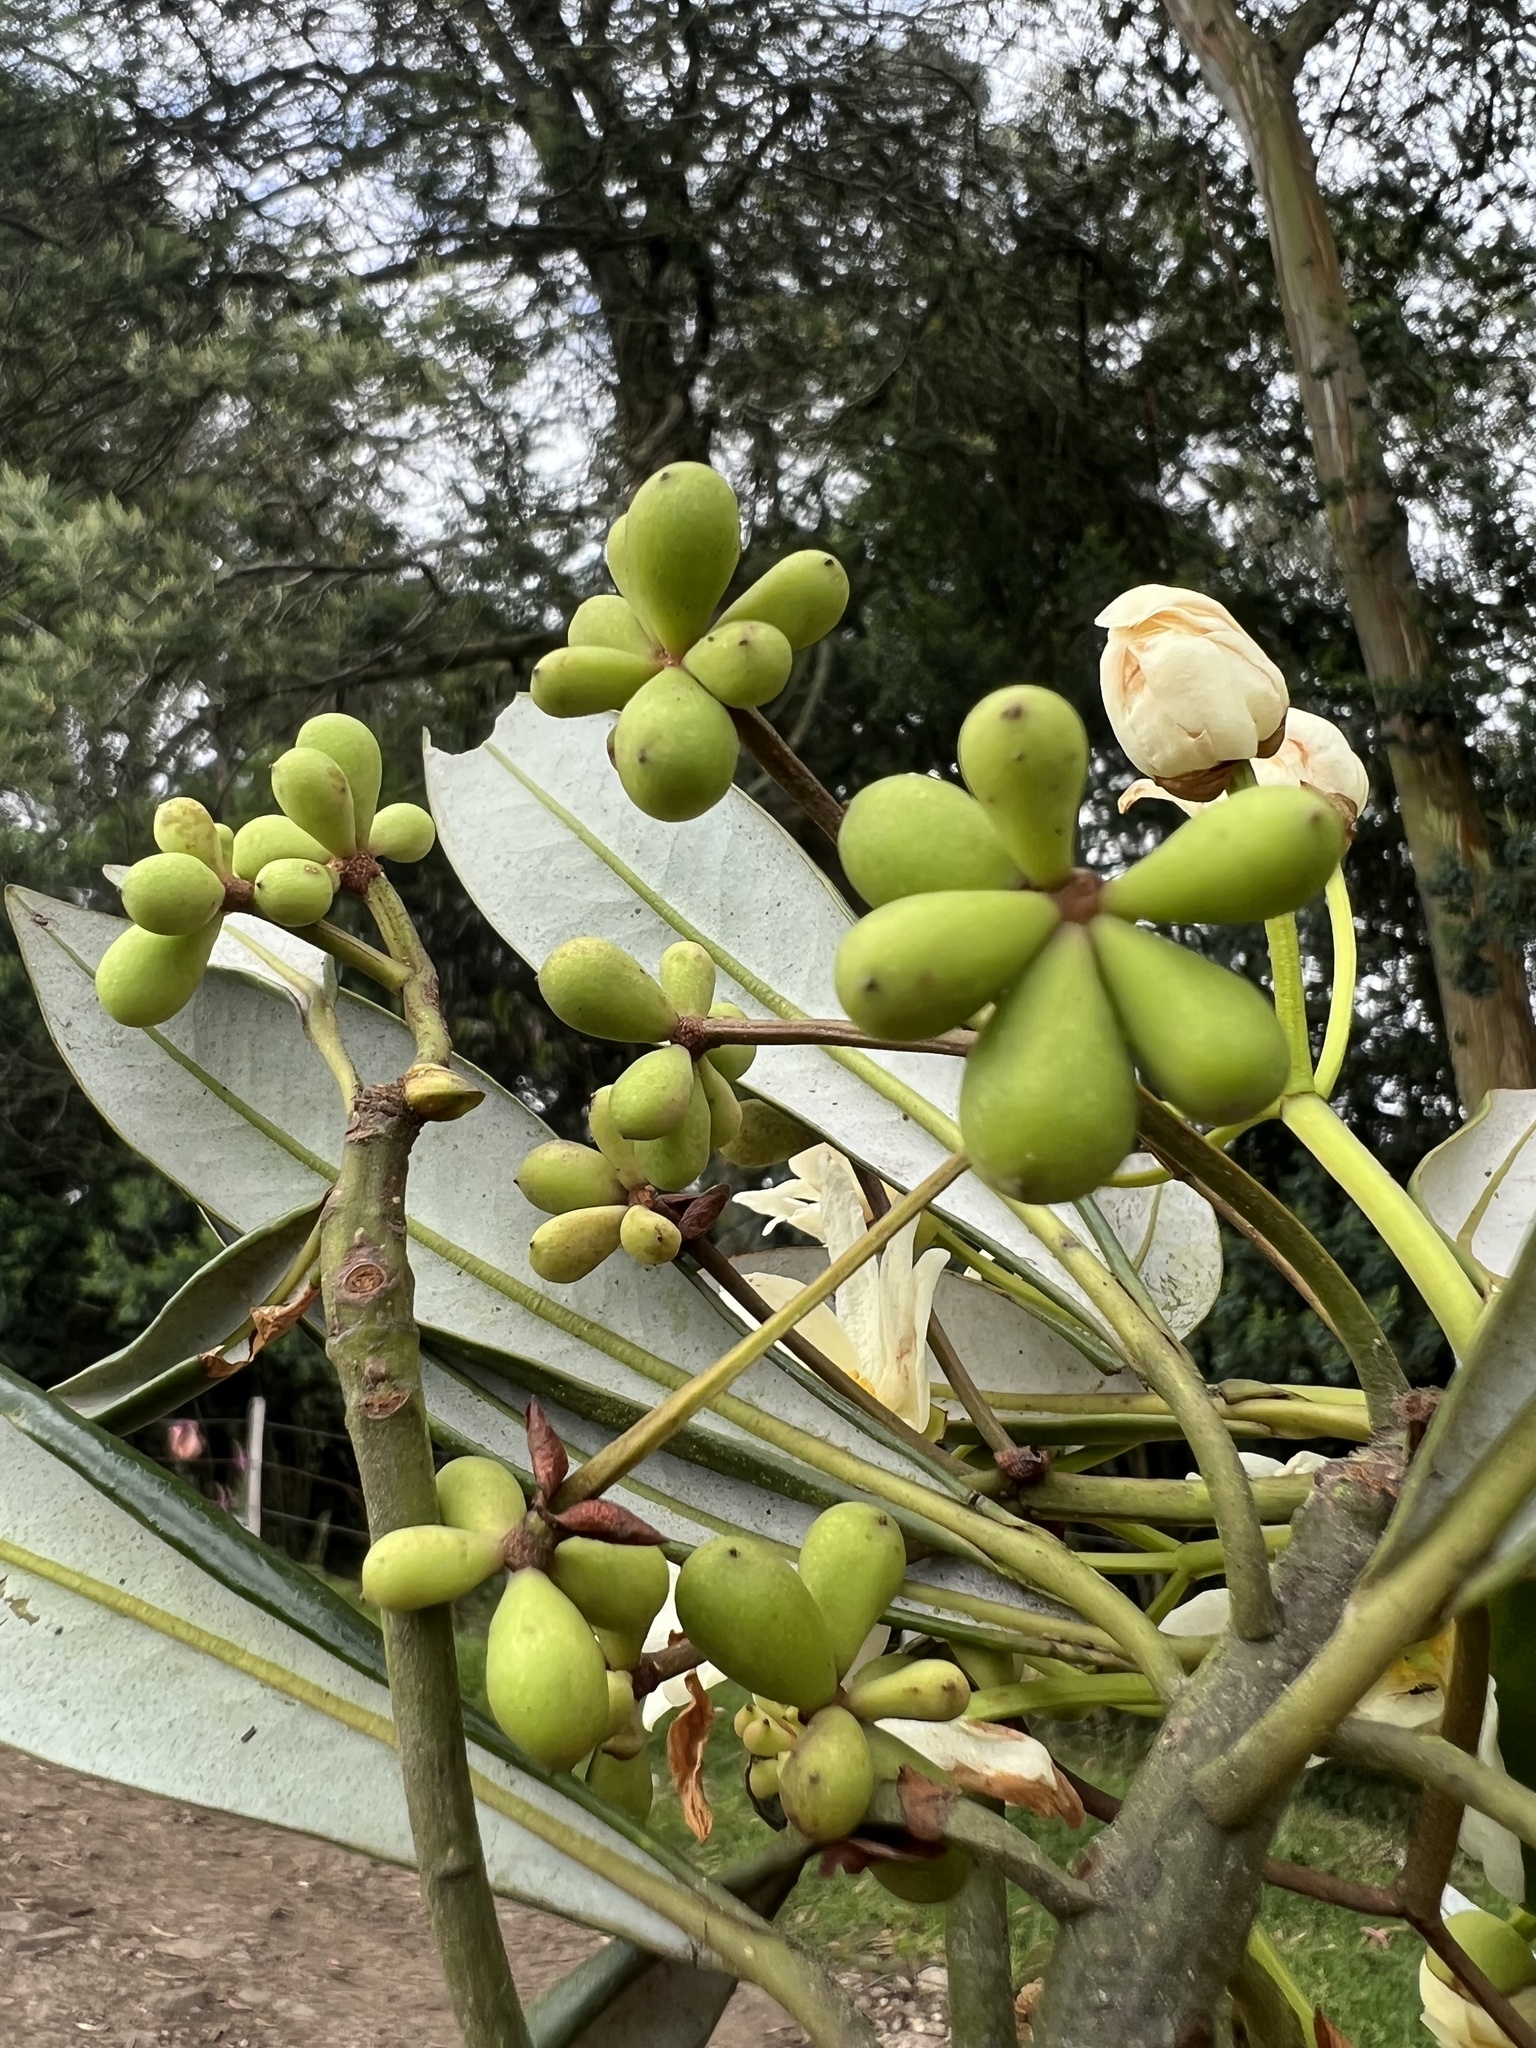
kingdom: Plantae
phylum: Tracheophyta
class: Magnoliopsida
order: Canellales
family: Winteraceae
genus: Drimys
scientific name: Drimys granadensis
